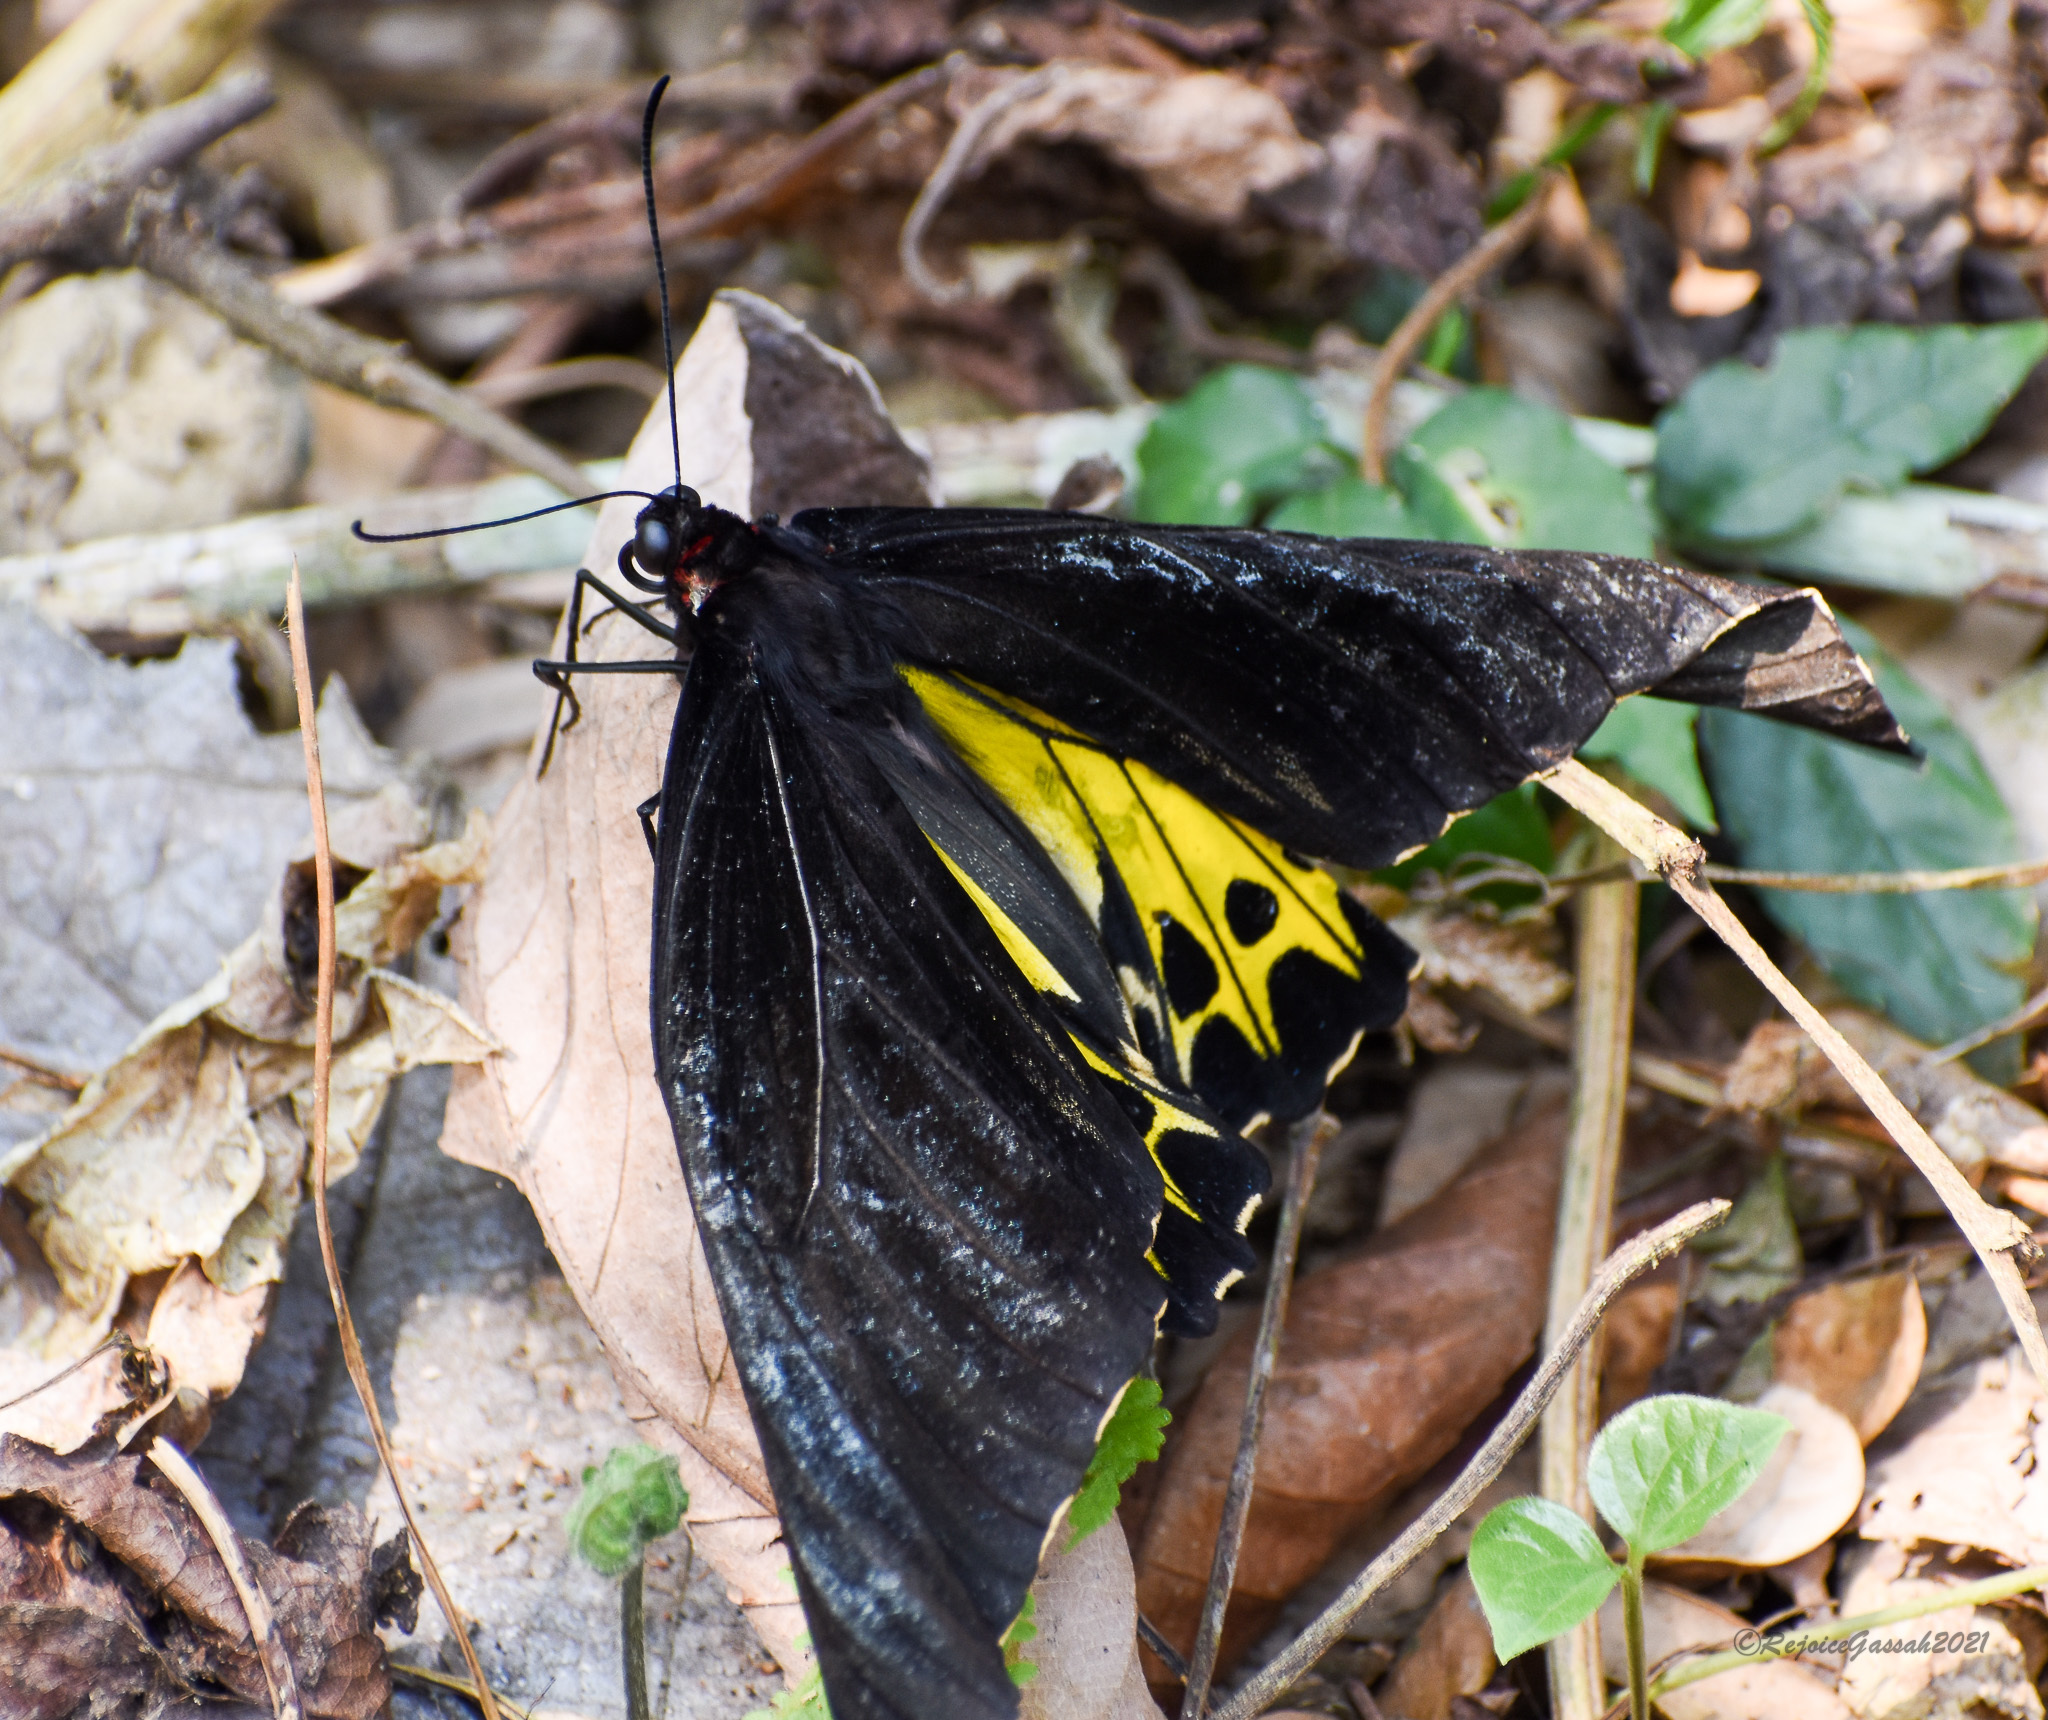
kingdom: Animalia
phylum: Arthropoda
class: Insecta
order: Lepidoptera
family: Papilionidae
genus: Troides
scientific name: Troides helena
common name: Common birdwing
